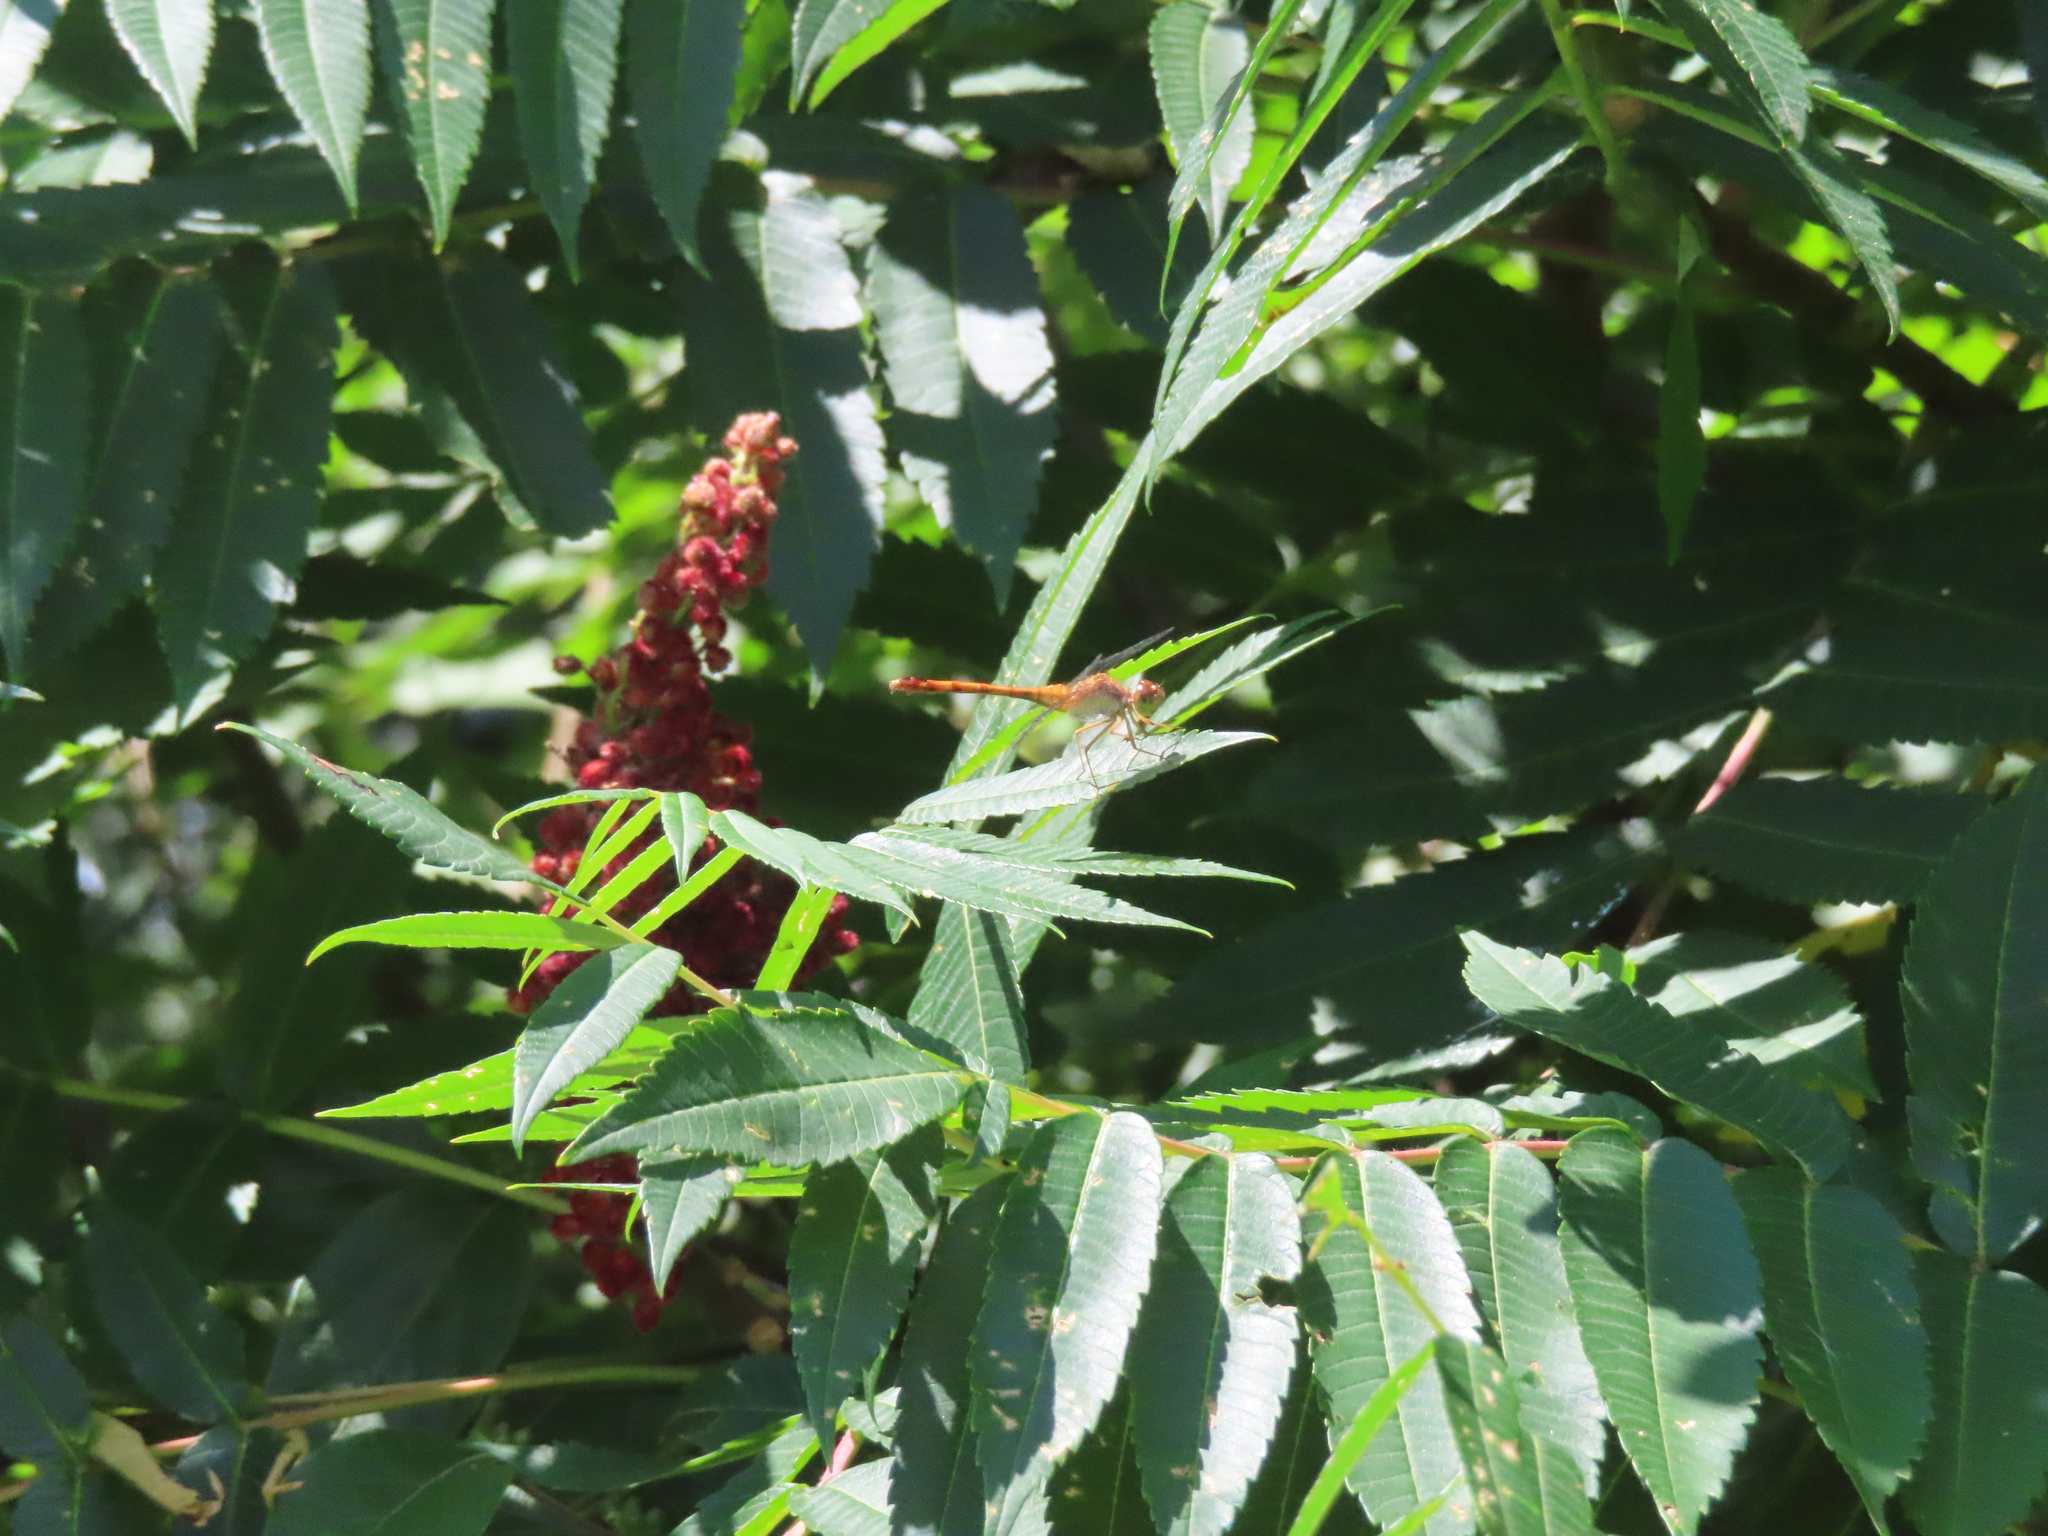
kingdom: Animalia
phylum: Arthropoda
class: Insecta
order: Odonata
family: Libellulidae
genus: Sympetrum
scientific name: Sympetrum vicinum
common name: Autumn meadowhawk
